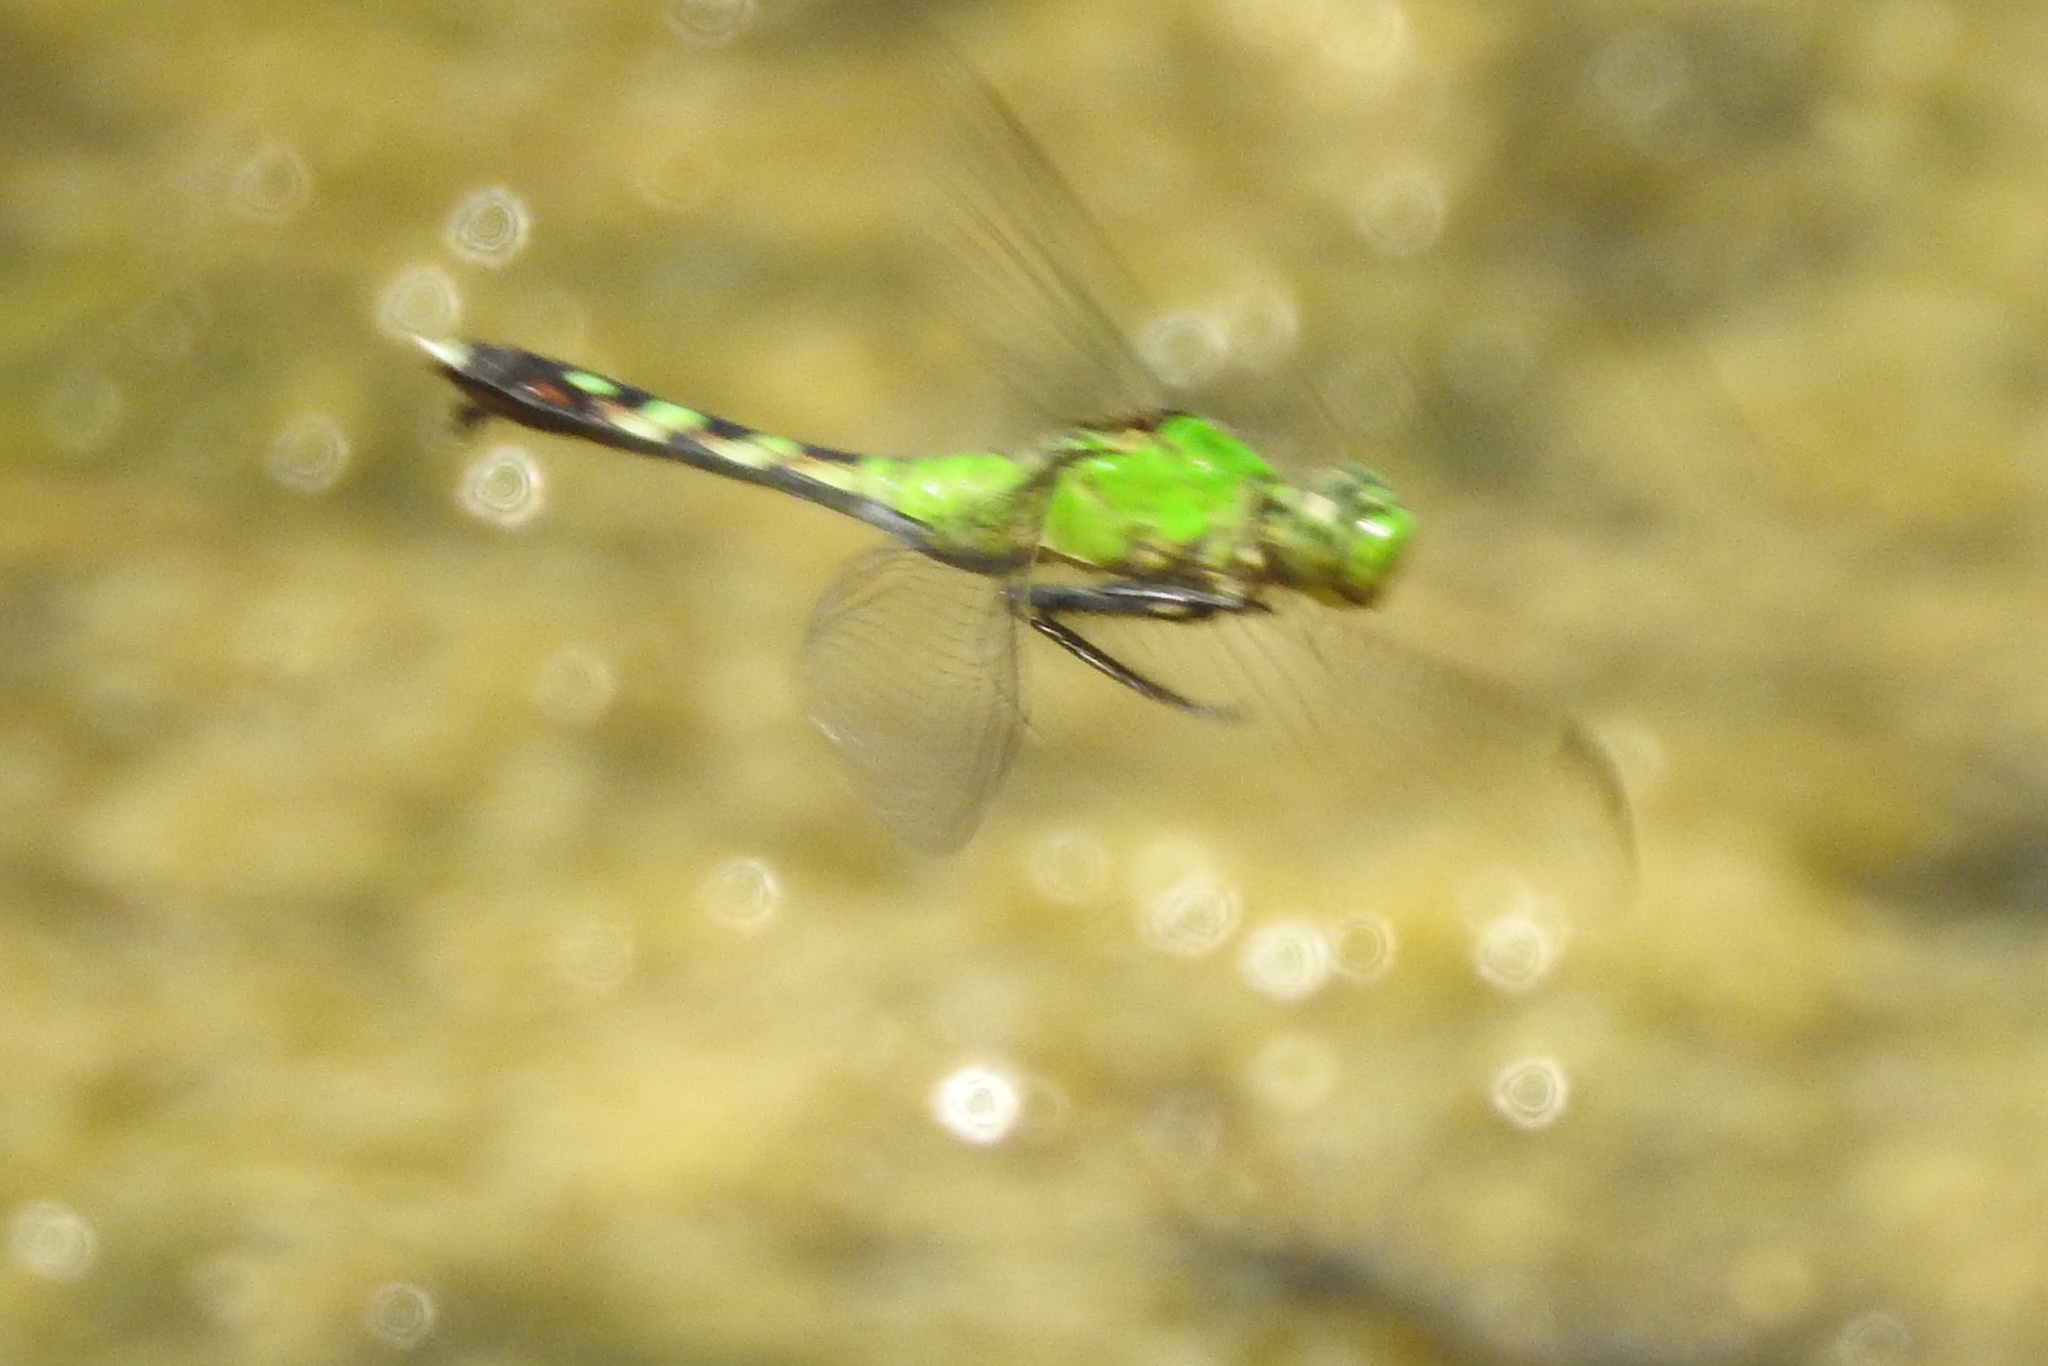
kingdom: Animalia
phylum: Arthropoda
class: Insecta
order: Odonata
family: Libellulidae
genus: Erythemis
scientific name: Erythemis simplicicollis
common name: Eastern pondhawk
